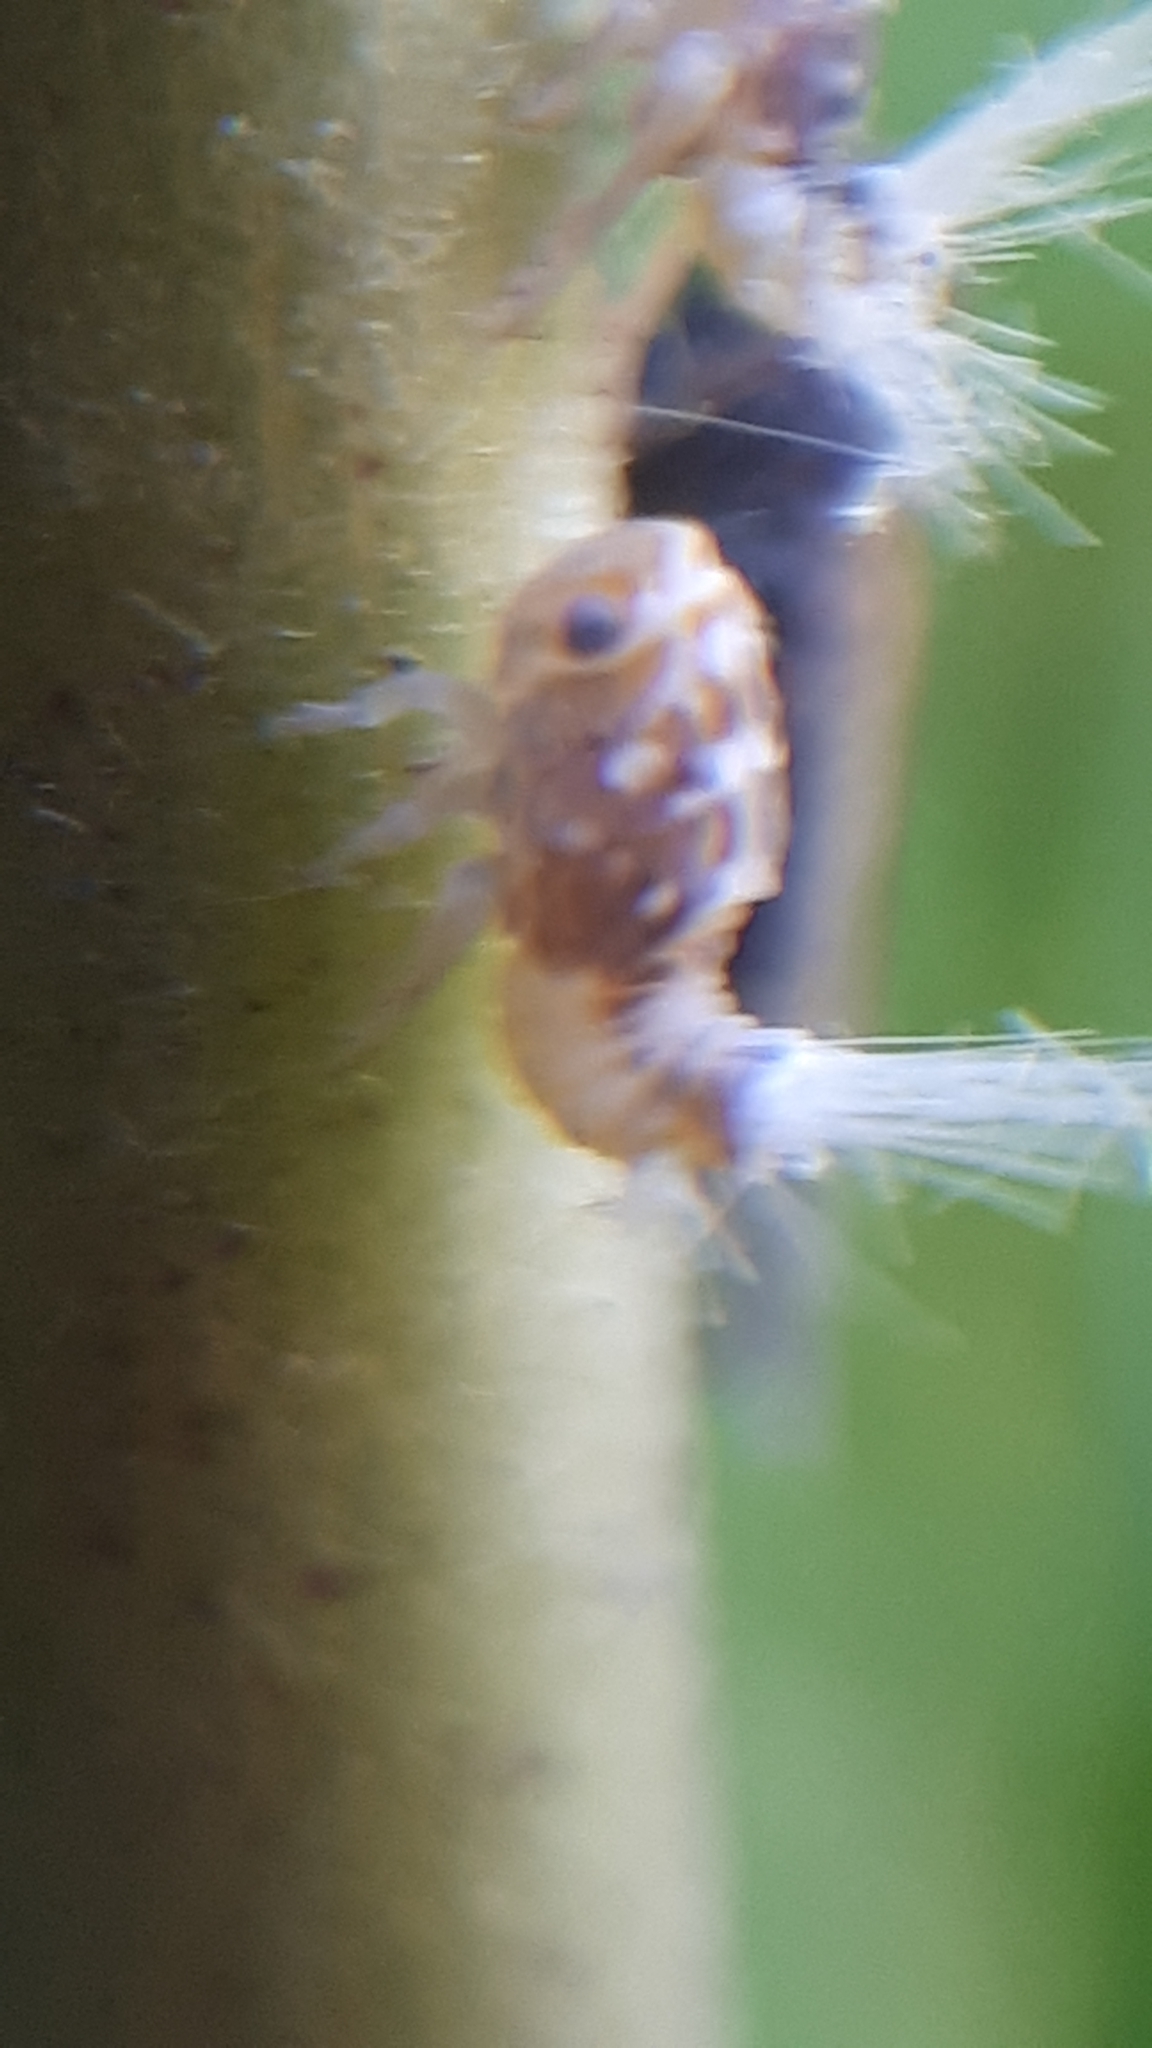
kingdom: Animalia
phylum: Arthropoda
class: Insecta
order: Hemiptera
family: Ricaniidae
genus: Scolypopa
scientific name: Scolypopa australis
